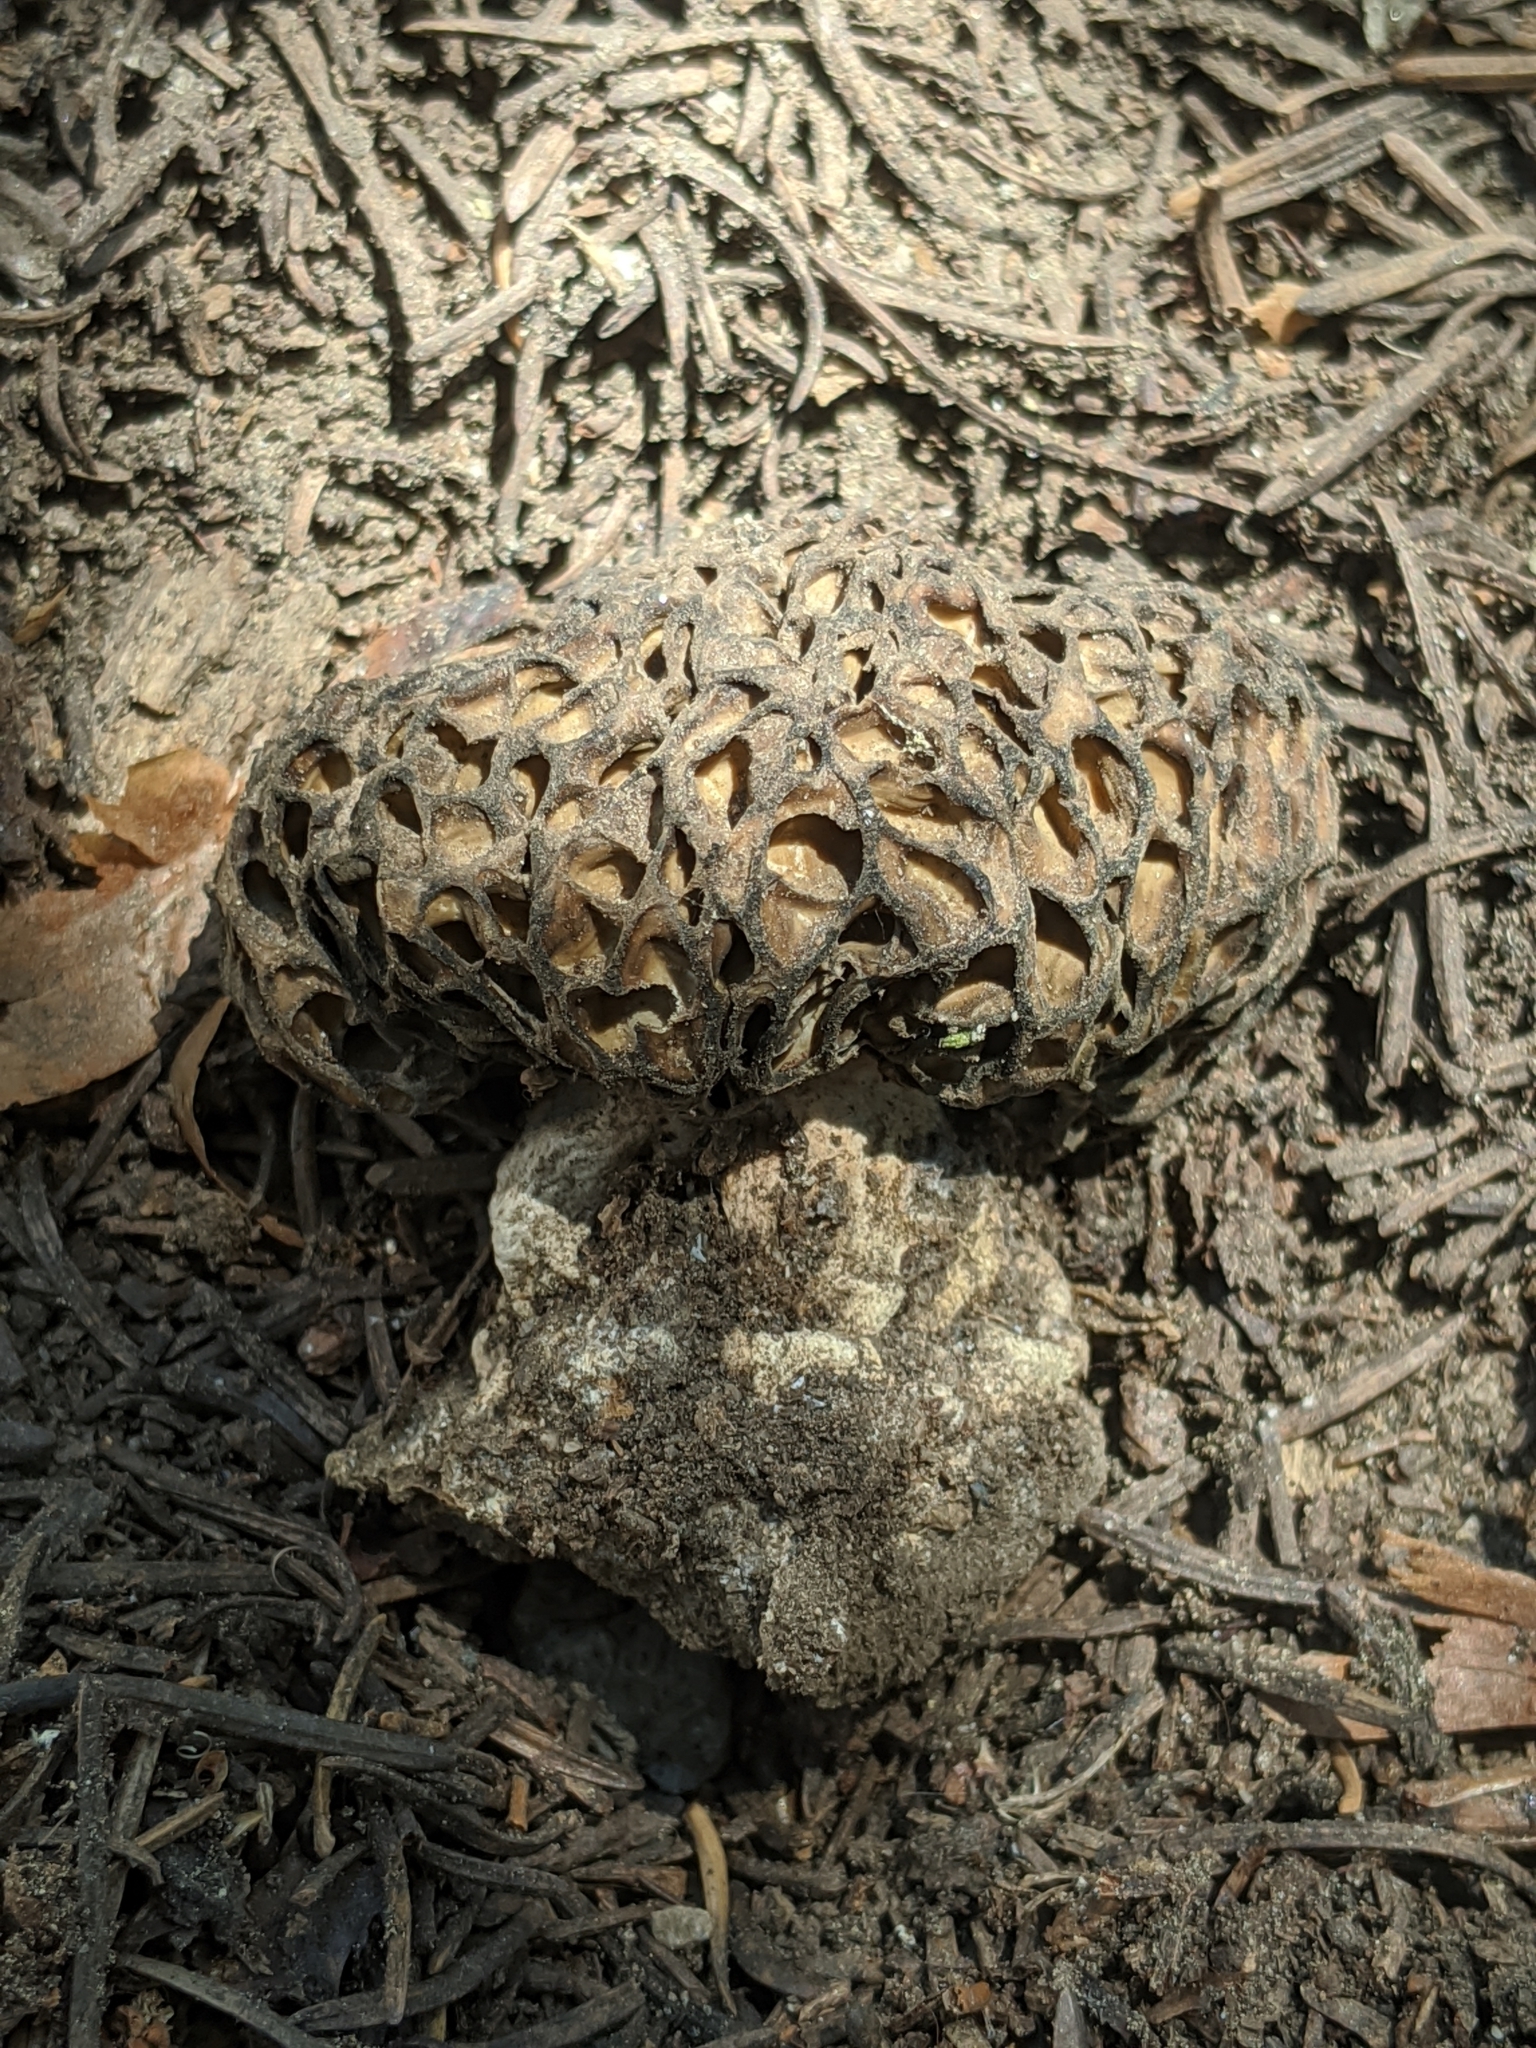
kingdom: Fungi
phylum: Ascomycota
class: Pezizomycetes
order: Pezizales
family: Morchellaceae
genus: Morchella
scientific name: Morchella snyderi
